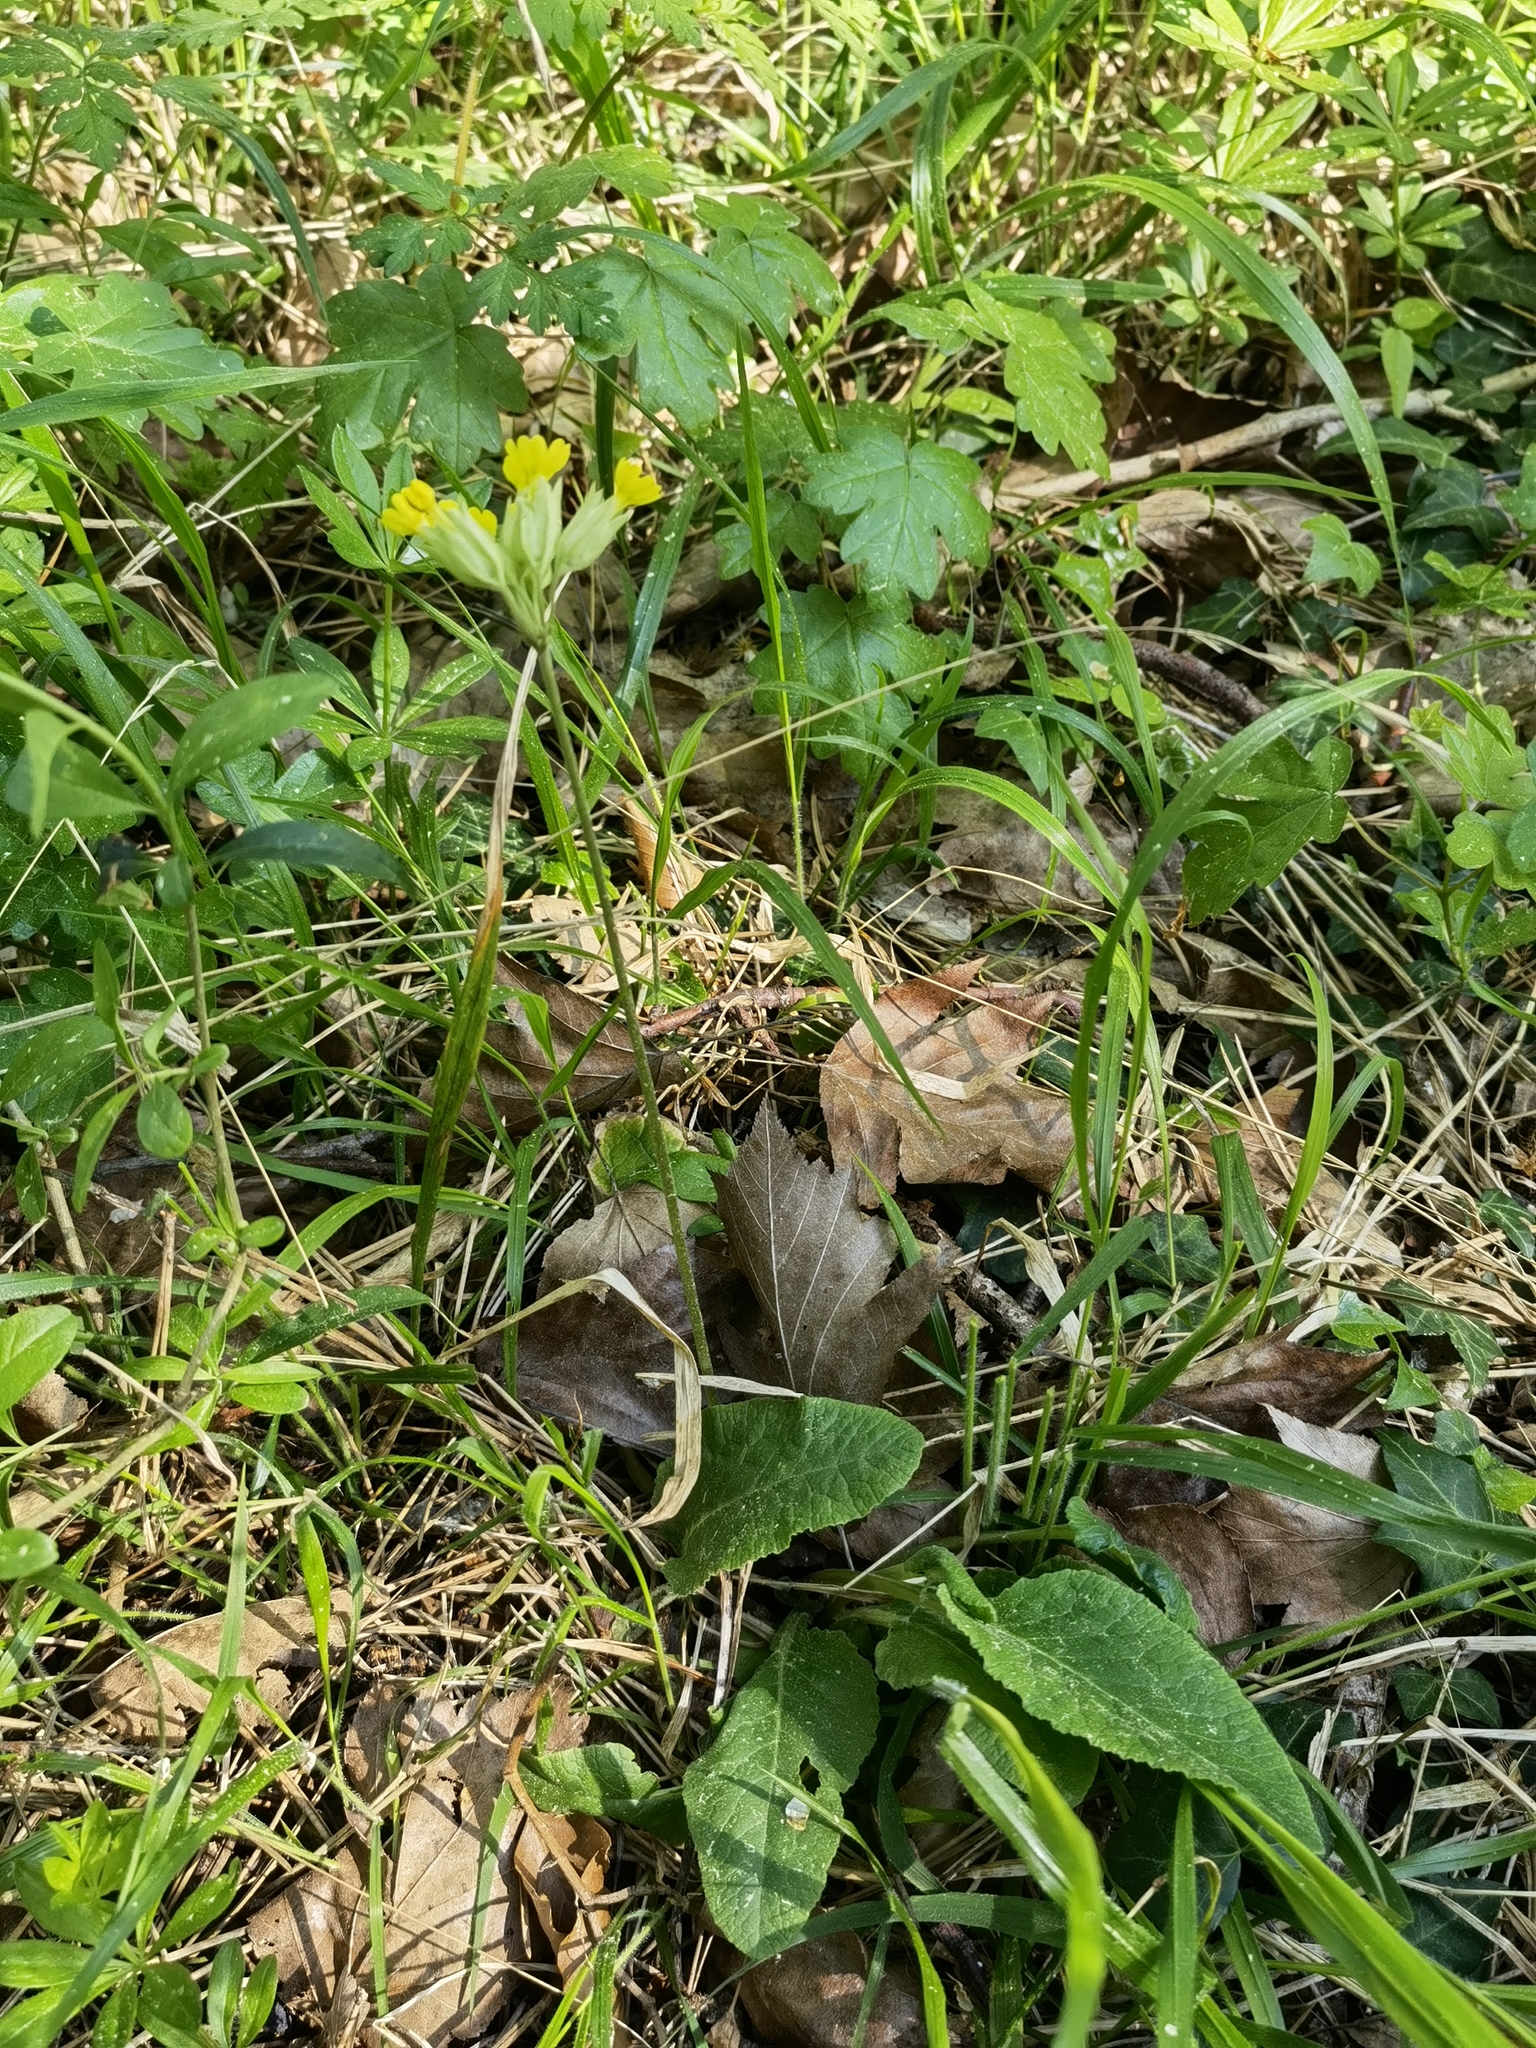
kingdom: Plantae
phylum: Tracheophyta
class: Magnoliopsida
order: Ericales
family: Primulaceae
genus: Primula
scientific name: Primula veris
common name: Cowslip
